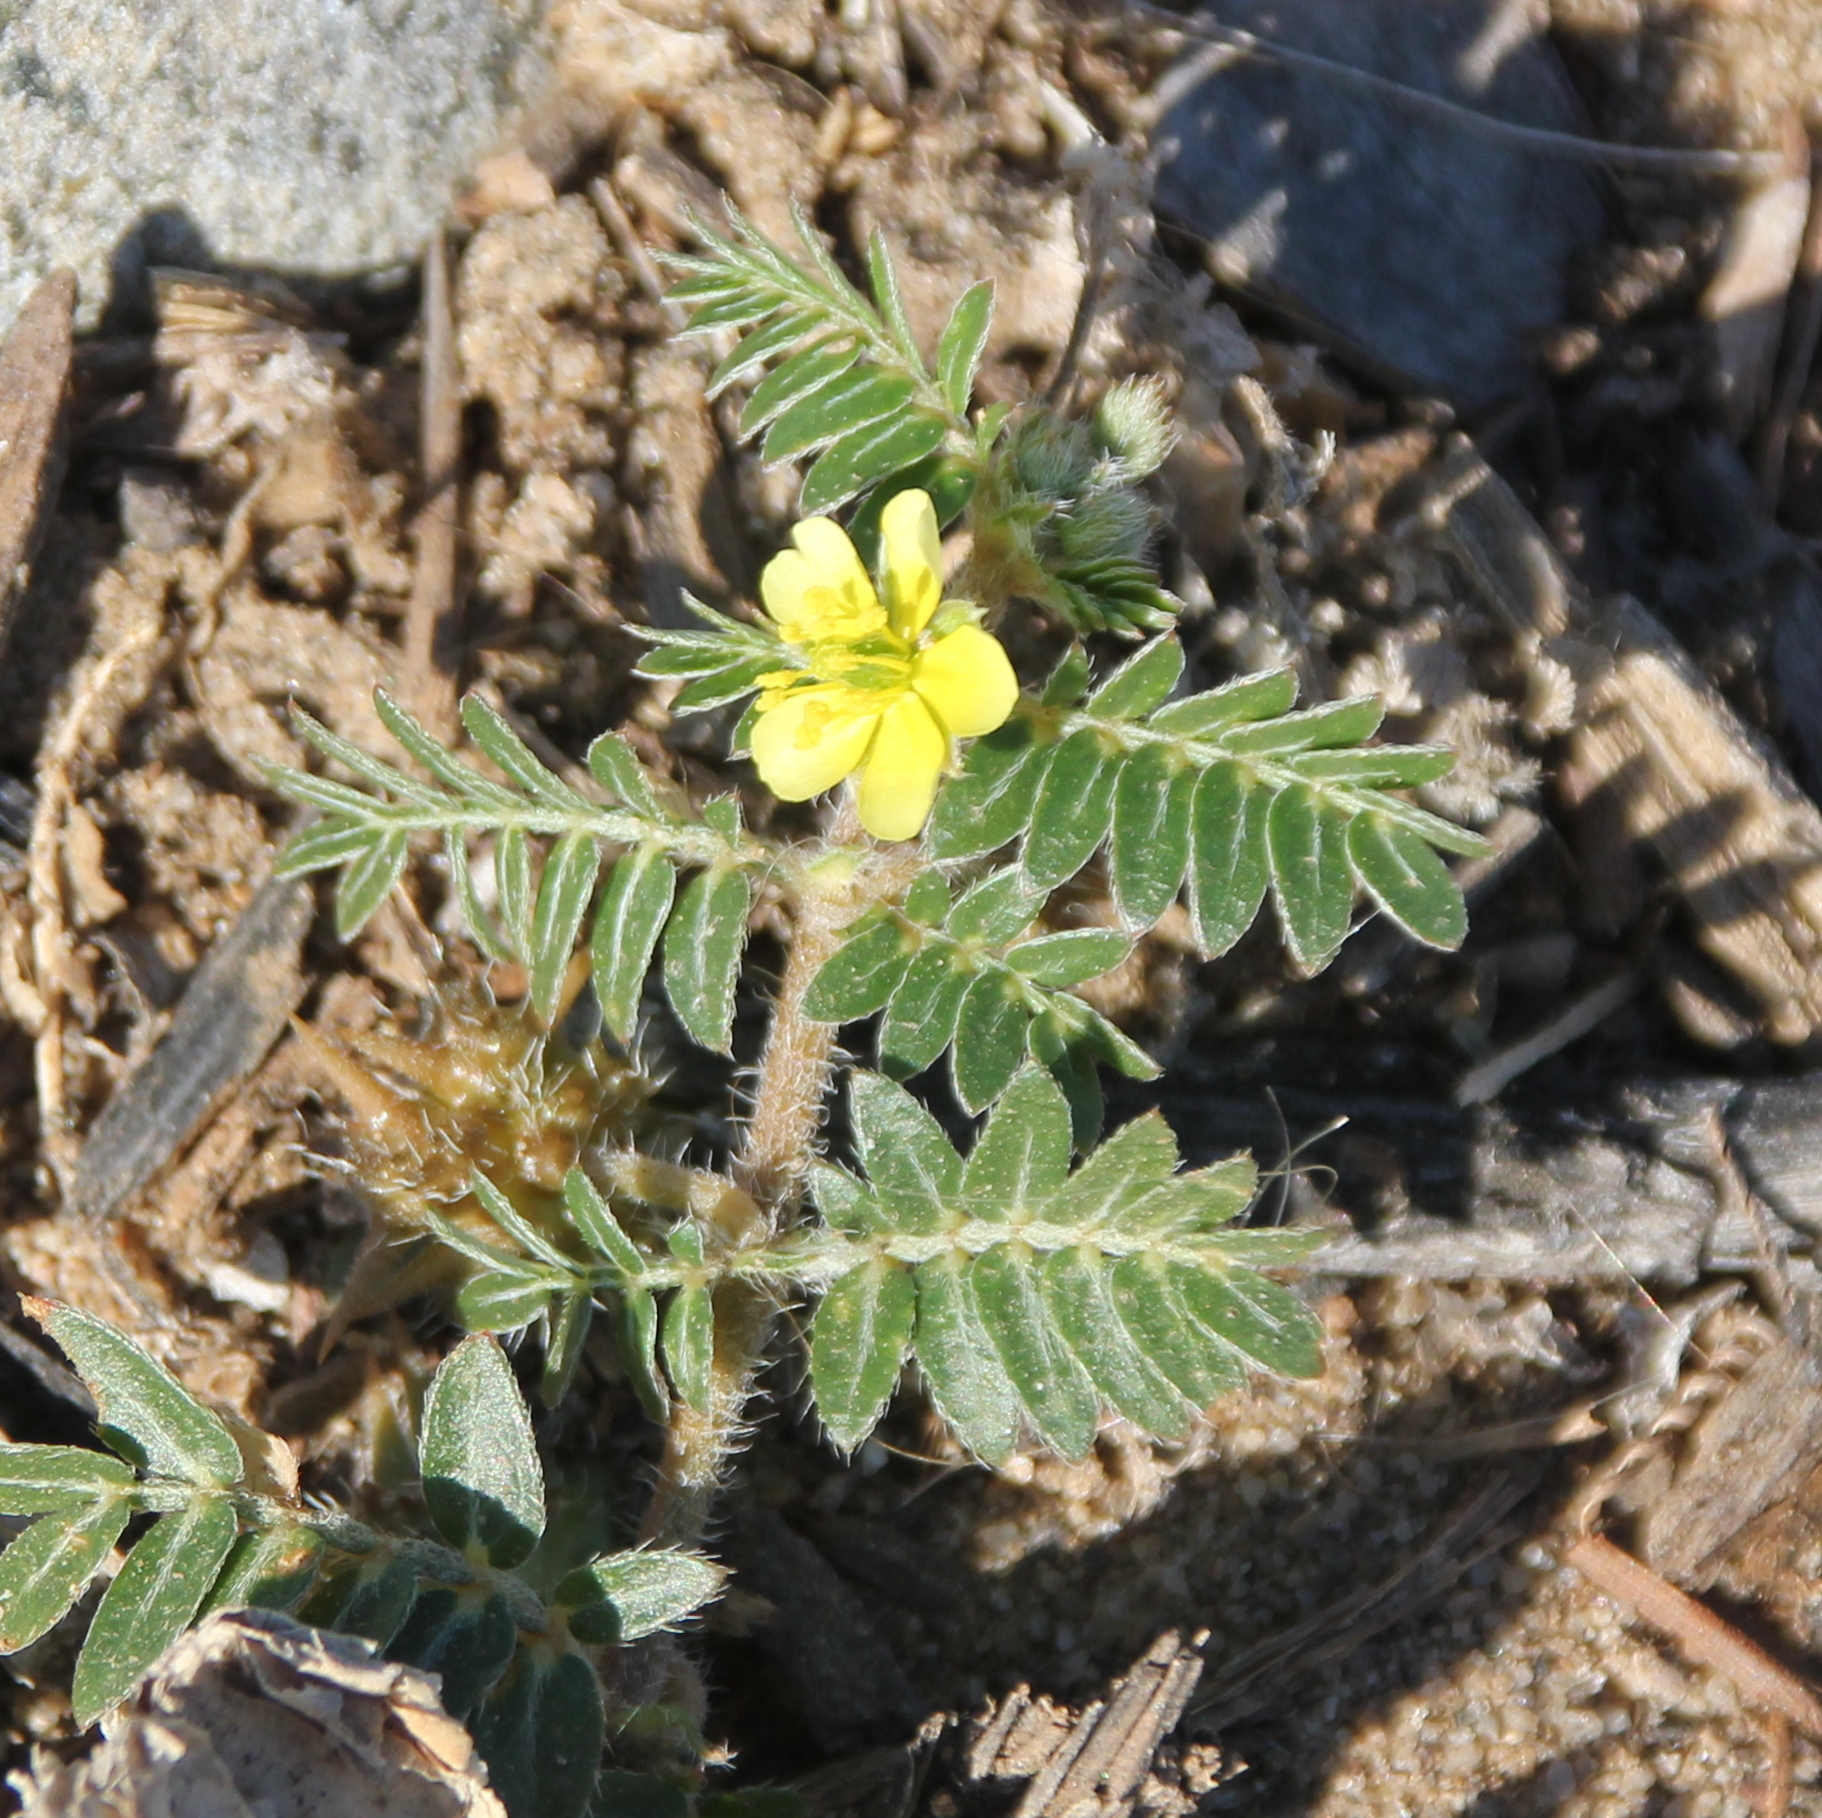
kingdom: Plantae
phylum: Tracheophyta
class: Magnoliopsida
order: Zygophyllales
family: Zygophyllaceae
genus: Tribulus
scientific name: Tribulus terrestris
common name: Puncturevine
